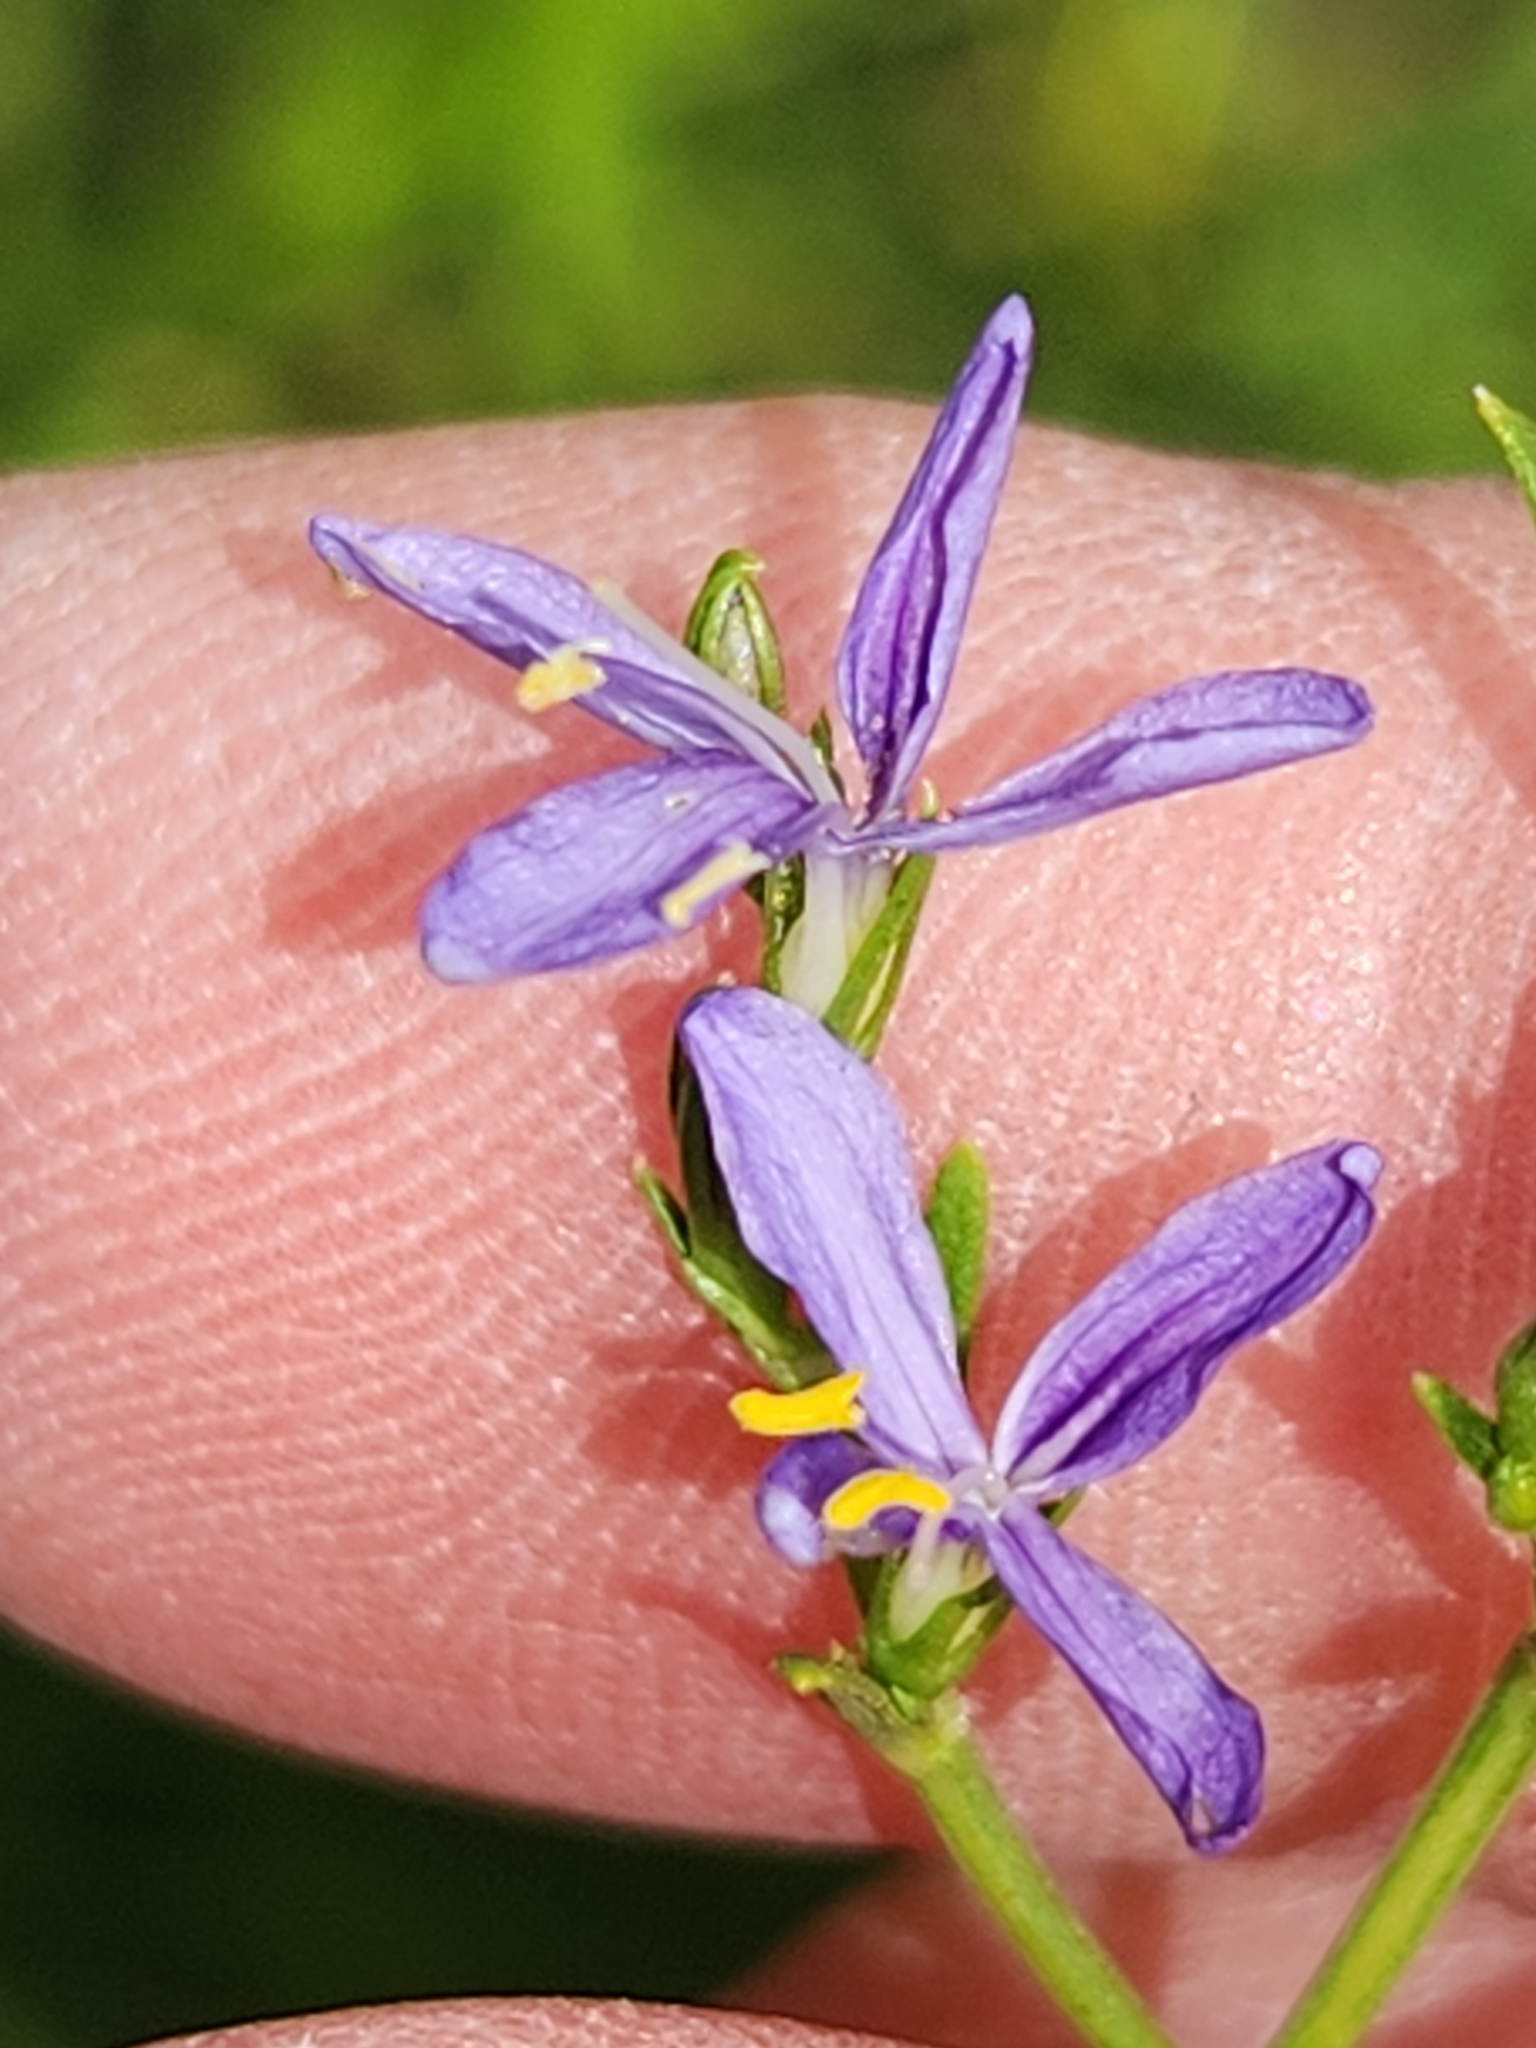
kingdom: Plantae
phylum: Tracheophyta
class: Magnoliopsida
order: Lamiales
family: Acanthaceae
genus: Carlowrightia
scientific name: Carlowrightia linearifolia
